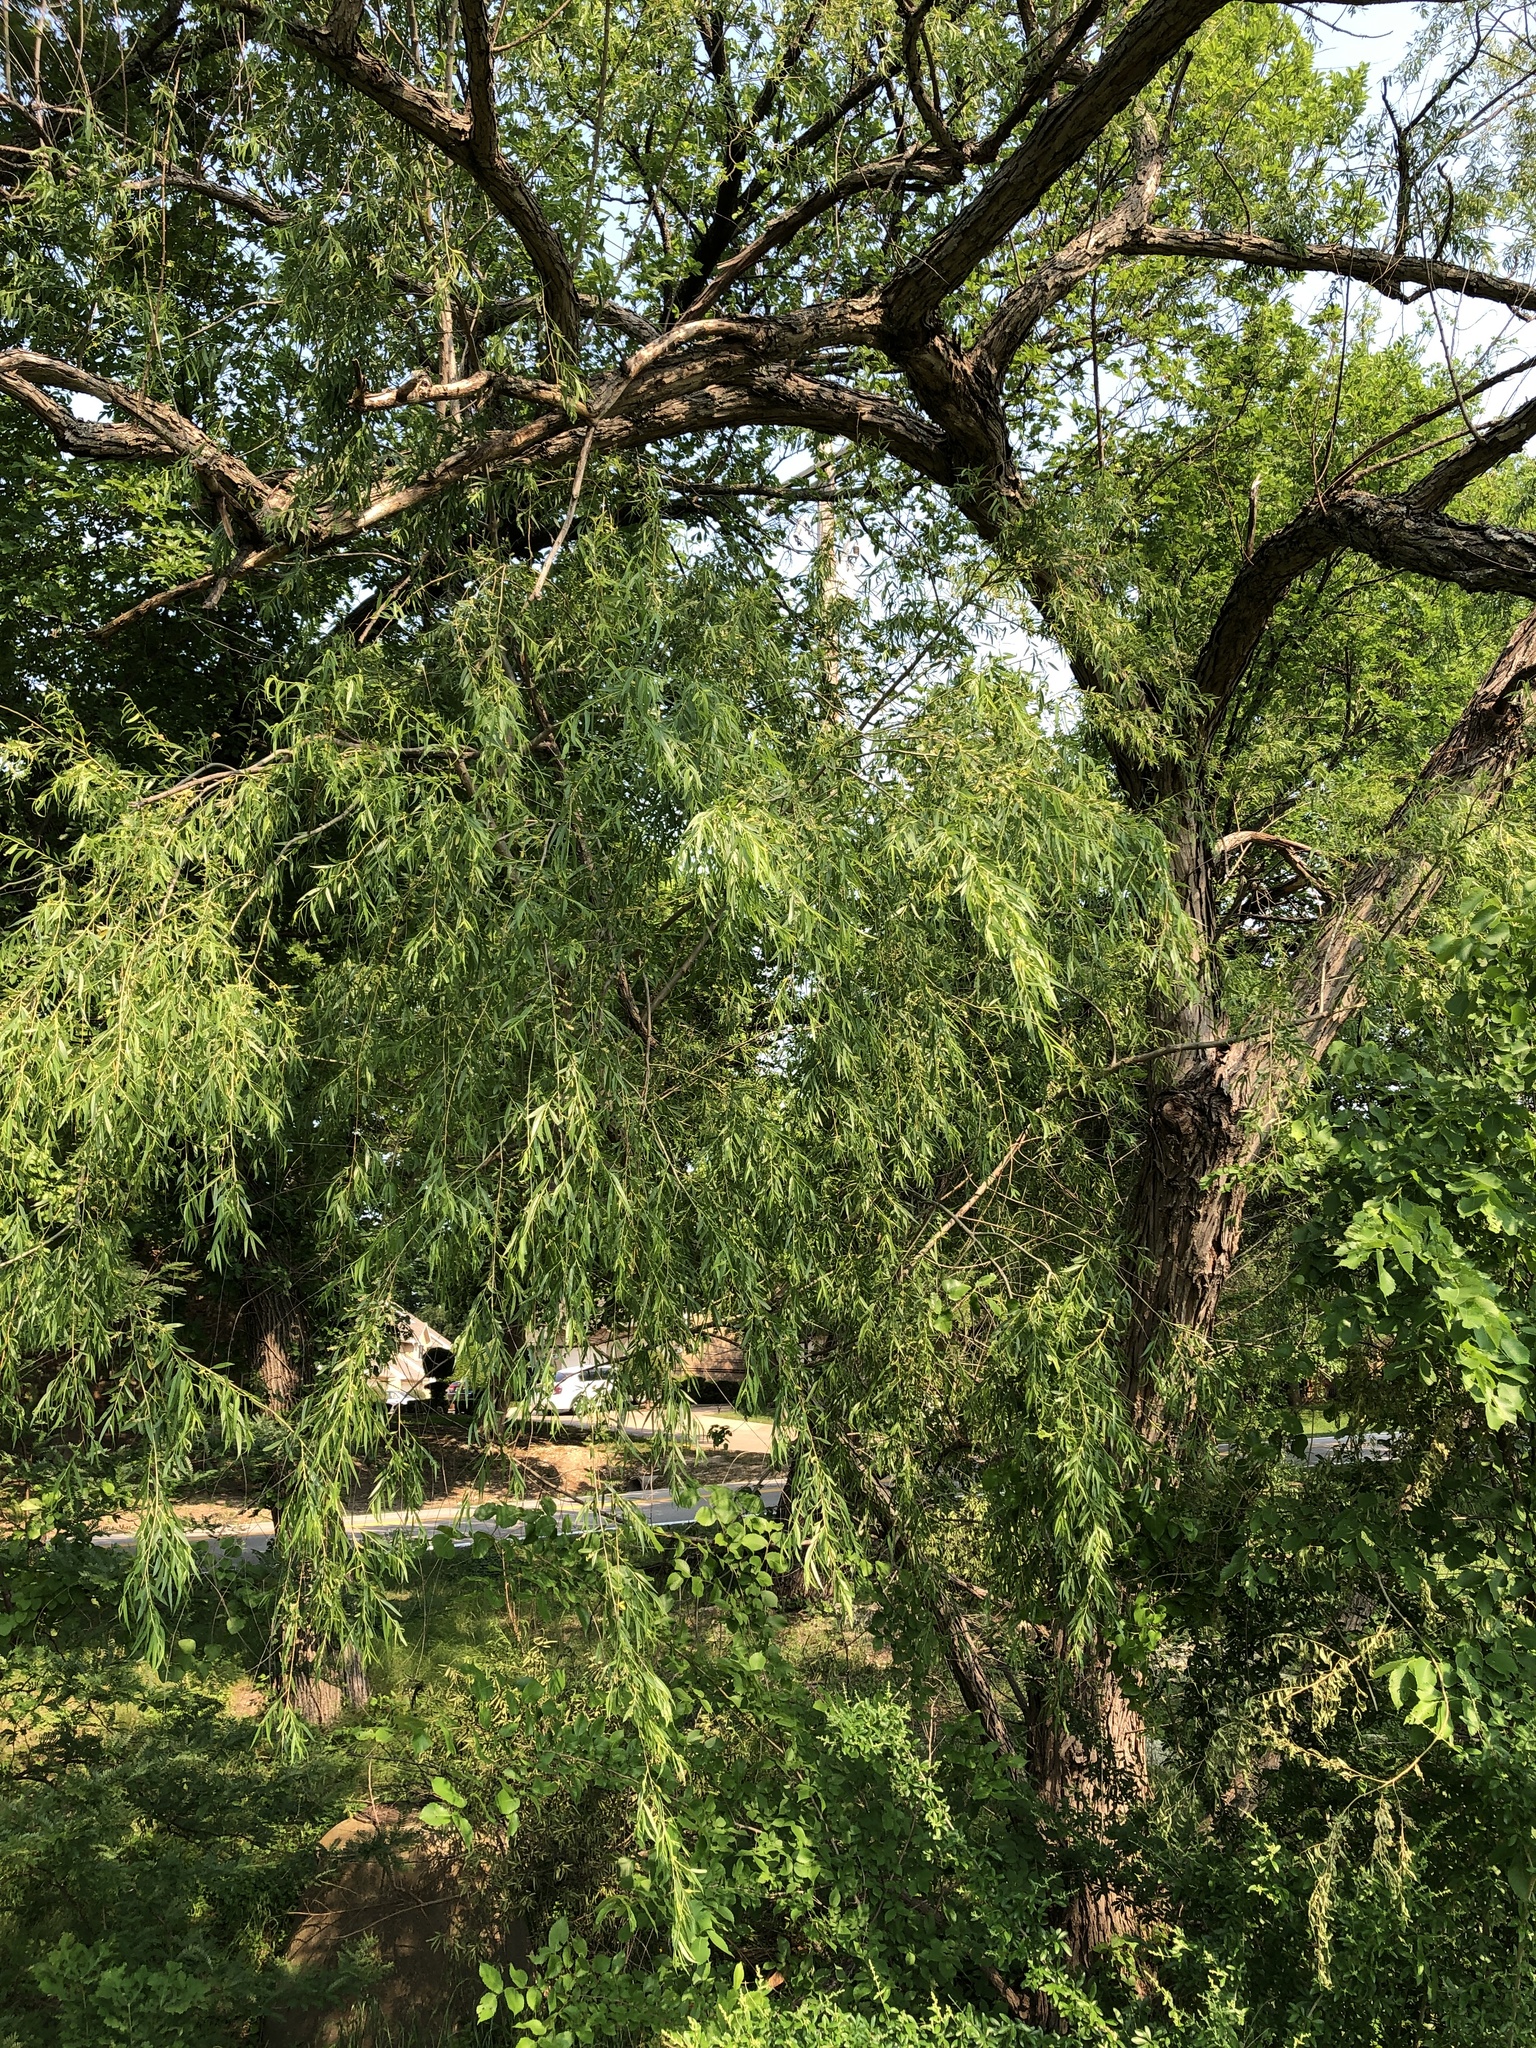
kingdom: Plantae
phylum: Tracheophyta
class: Magnoliopsida
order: Malpighiales
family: Salicaceae
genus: Salix
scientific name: Salix nigra
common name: Black willow
